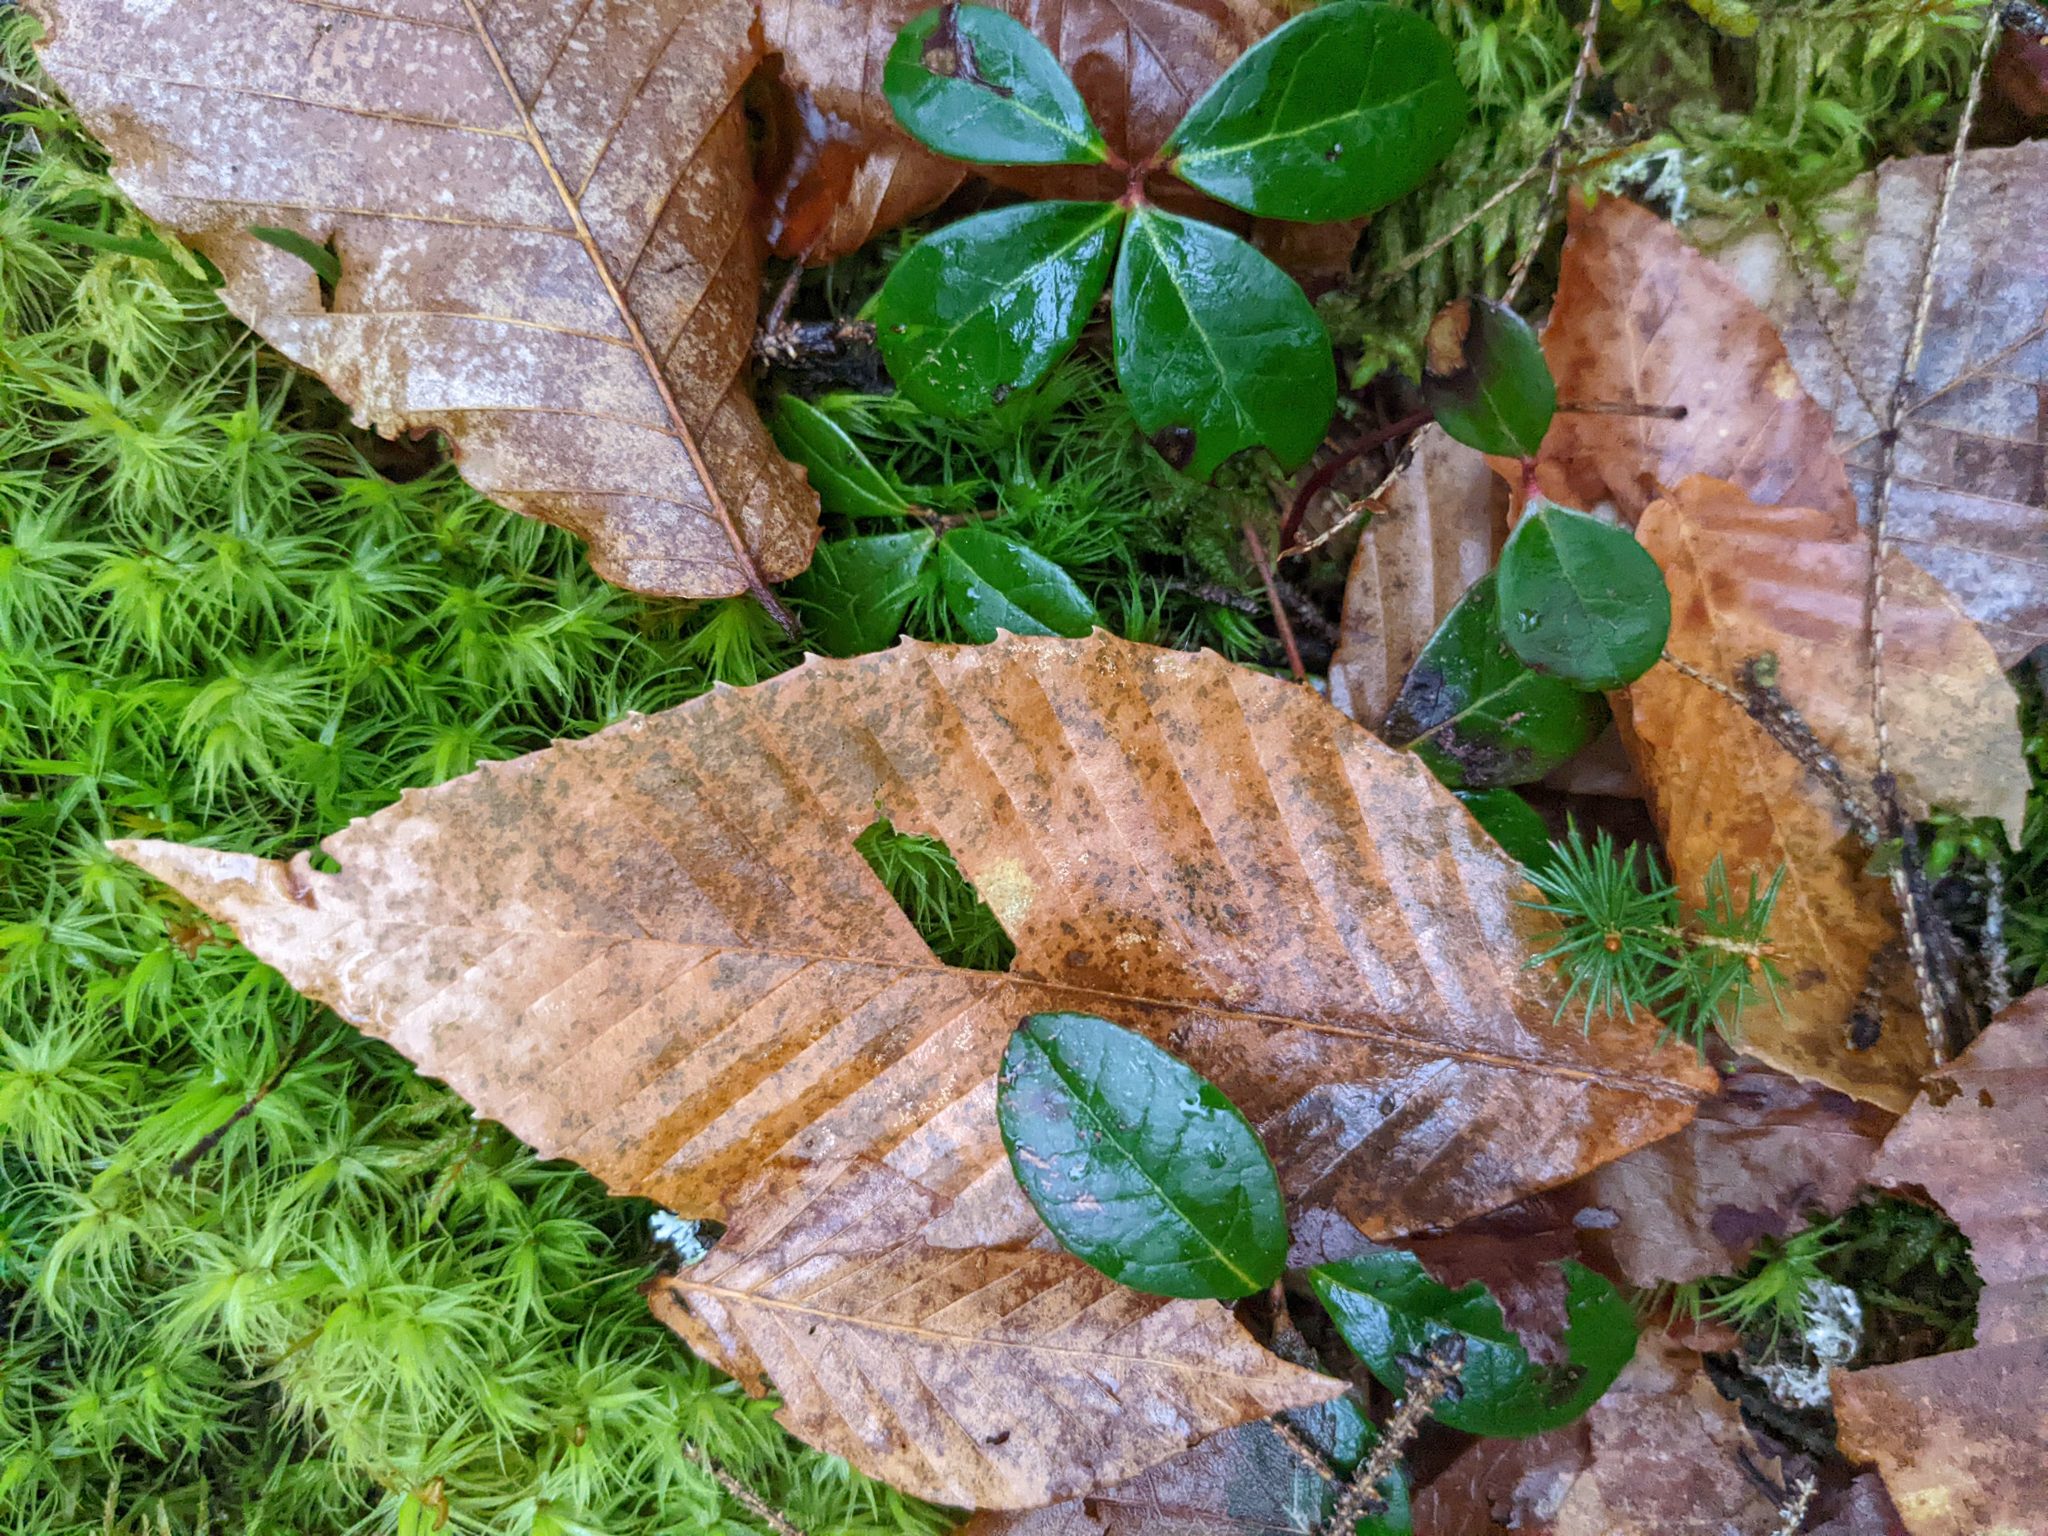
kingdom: Plantae
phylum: Tracheophyta
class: Magnoliopsida
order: Ericales
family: Ericaceae
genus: Gaultheria
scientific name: Gaultheria procumbens
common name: Checkerberry
